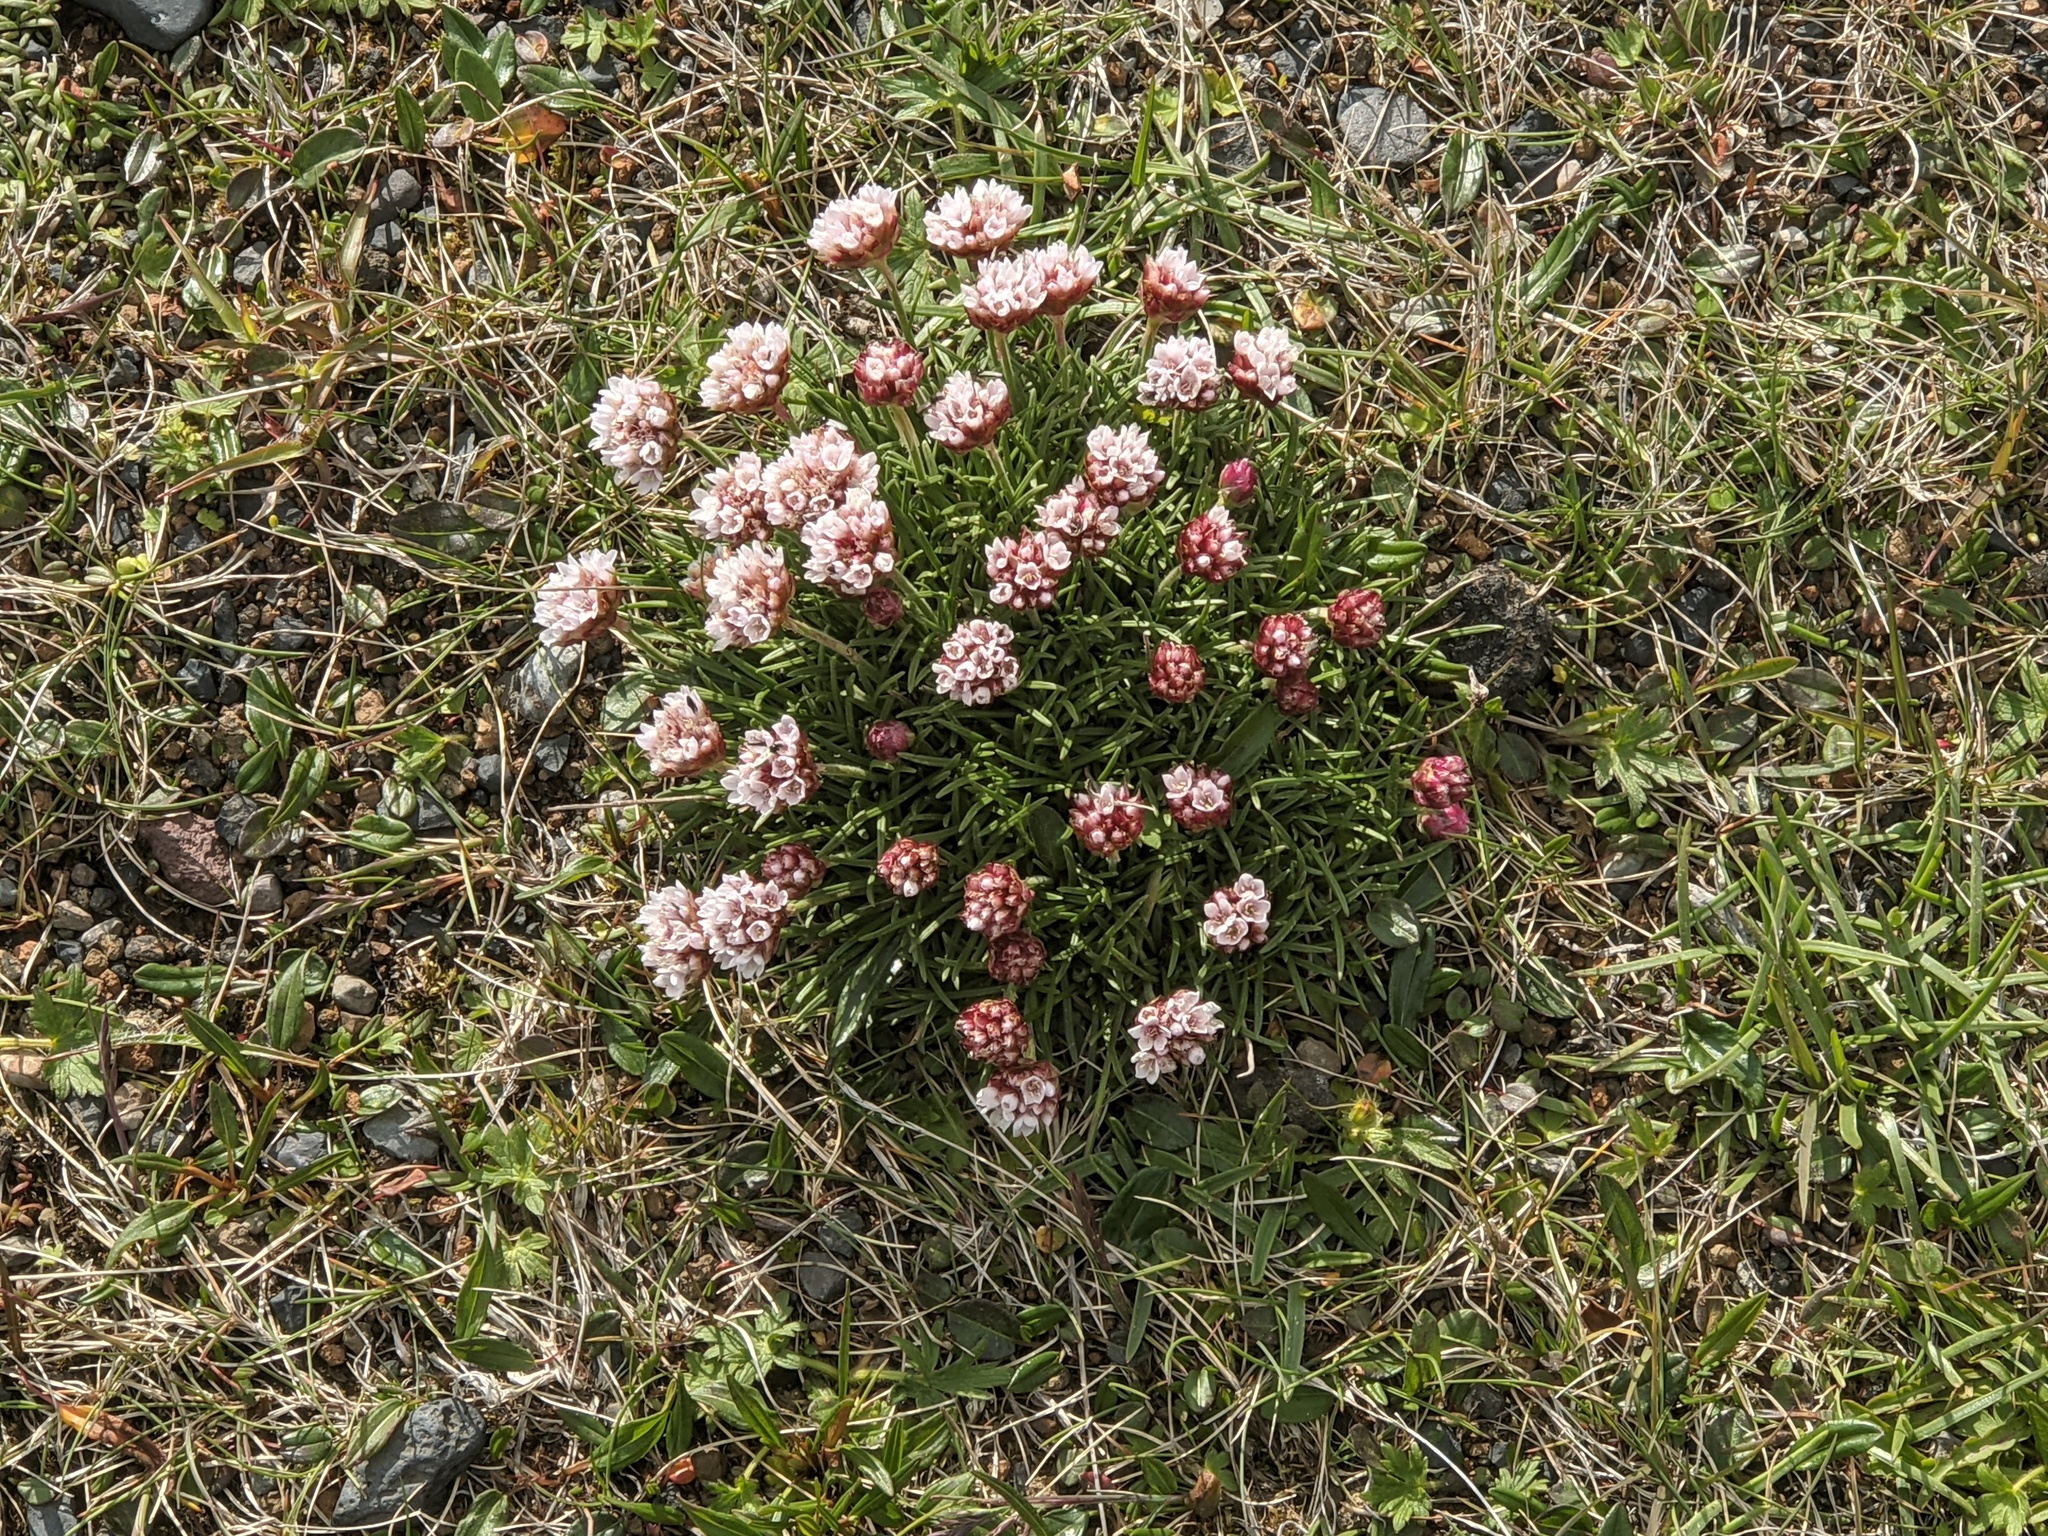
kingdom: Plantae
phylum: Tracheophyta
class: Magnoliopsida
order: Caryophyllales
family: Plumbaginaceae
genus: Armeria
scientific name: Armeria maritima
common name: Thrift
